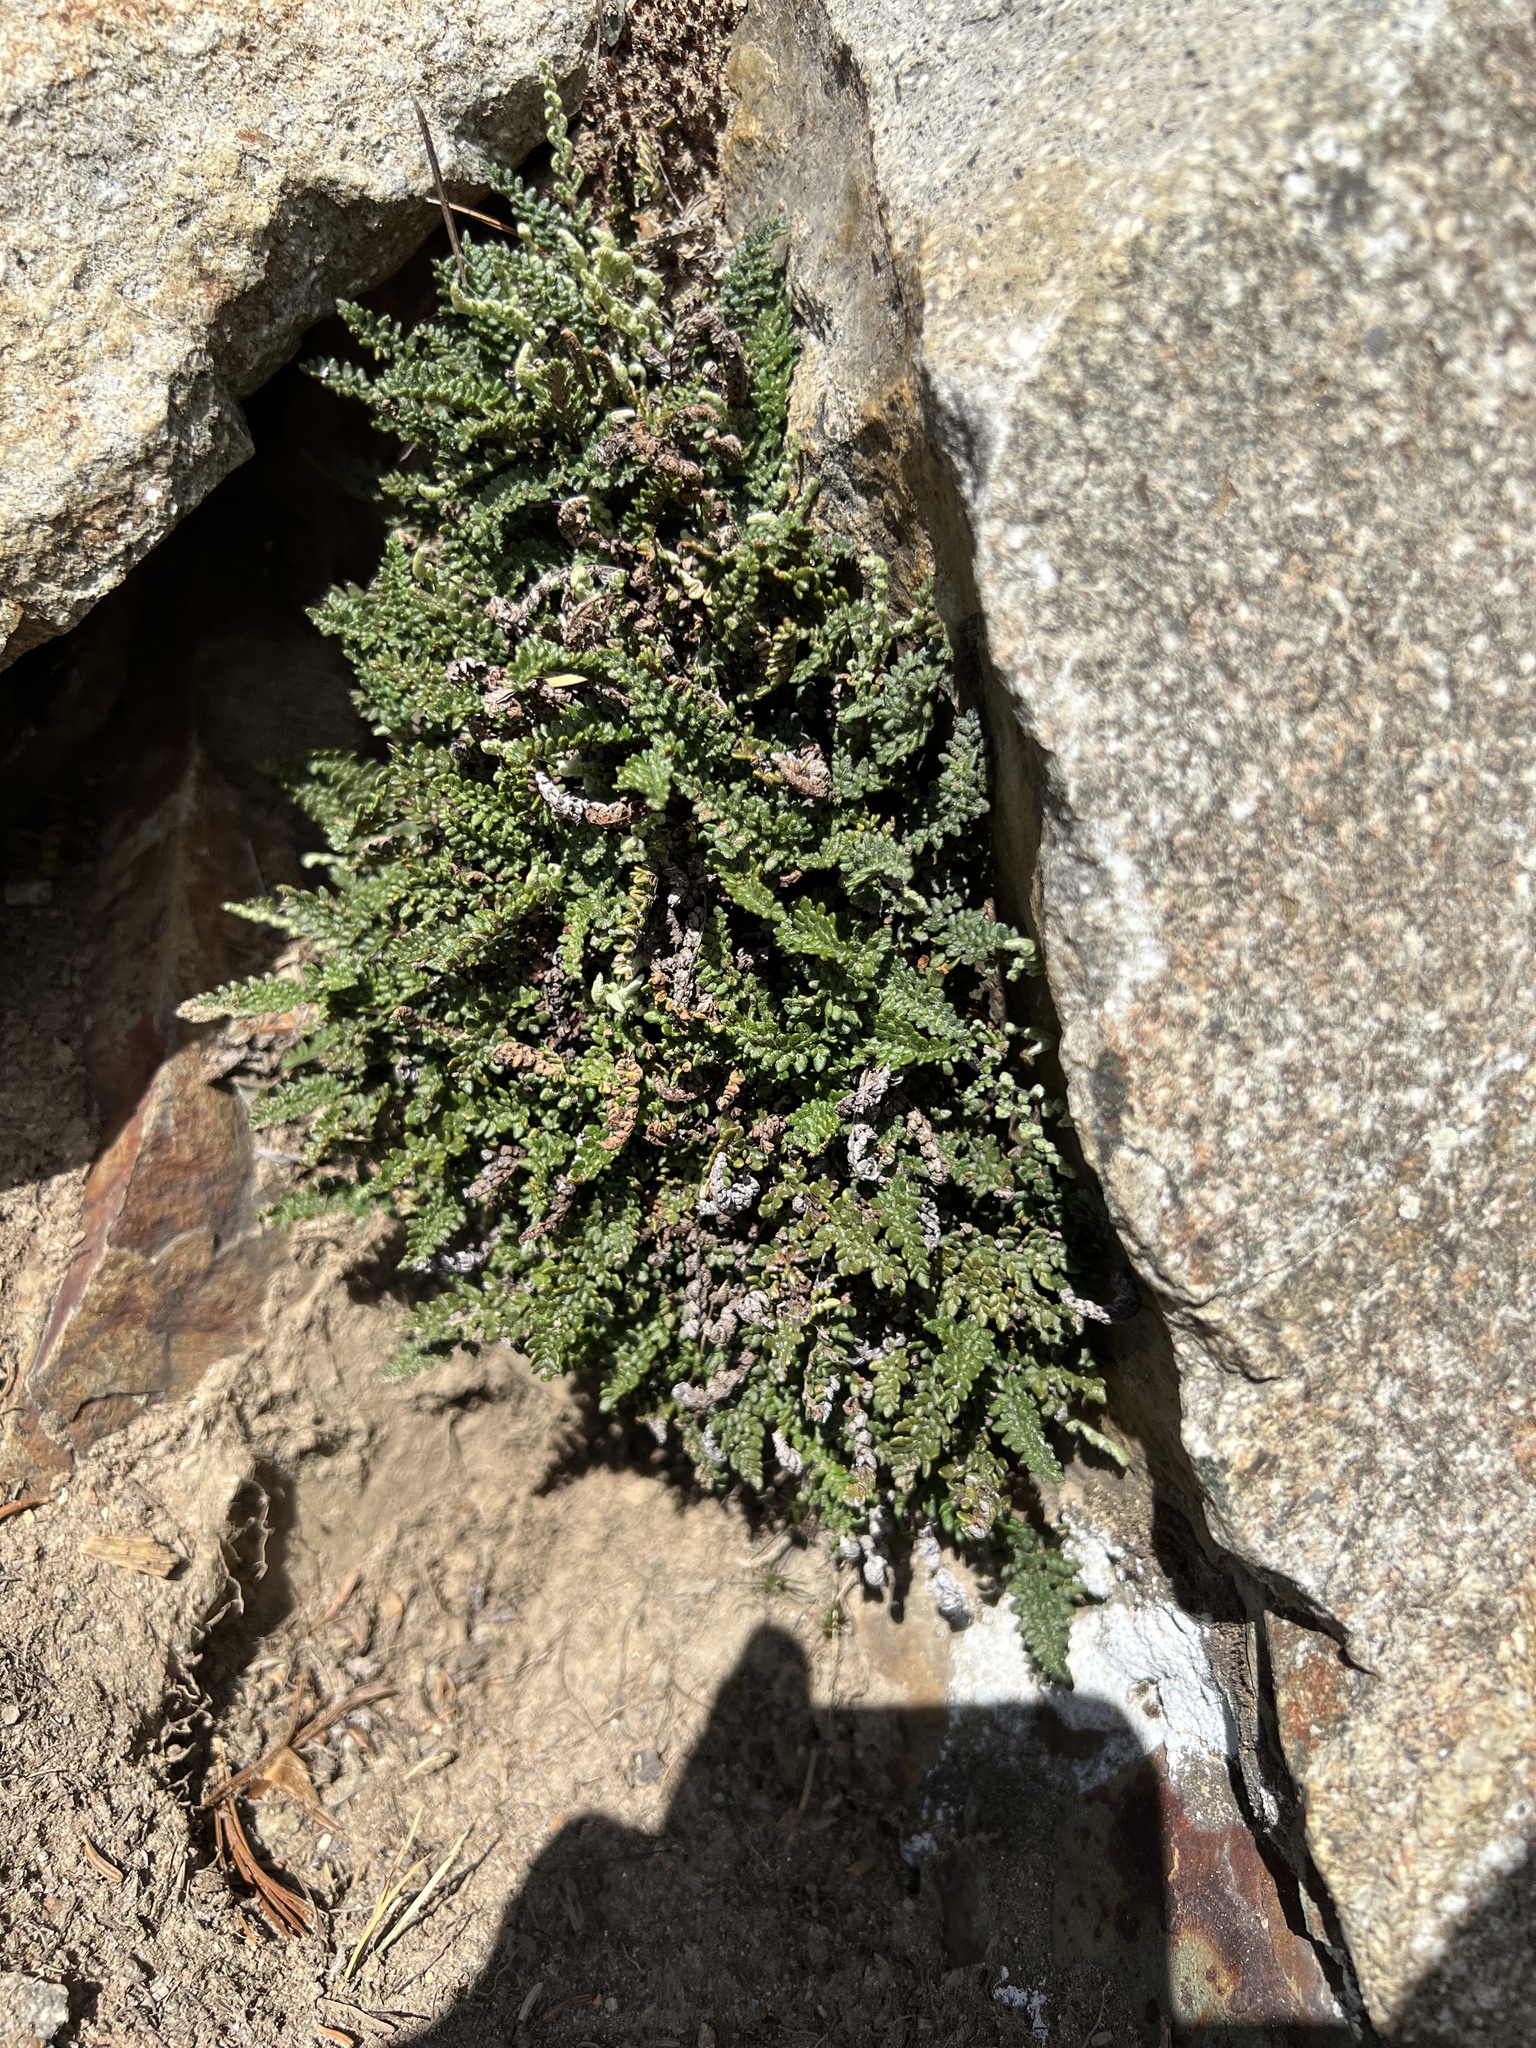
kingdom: Plantae
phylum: Tracheophyta
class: Polypodiopsida
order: Polypodiales
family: Pteridaceae
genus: Myriopteris
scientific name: Myriopteris gracillima
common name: Lace fern
